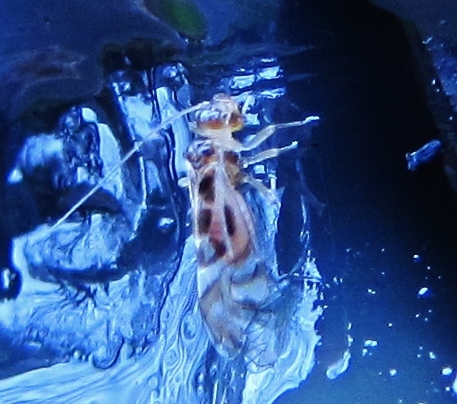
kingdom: Animalia
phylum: Arthropoda
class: Insecta
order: Psocodea
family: Stenopsocidae
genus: Graphopsocus
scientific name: Graphopsocus cruciatus
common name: Lizard bark louse
